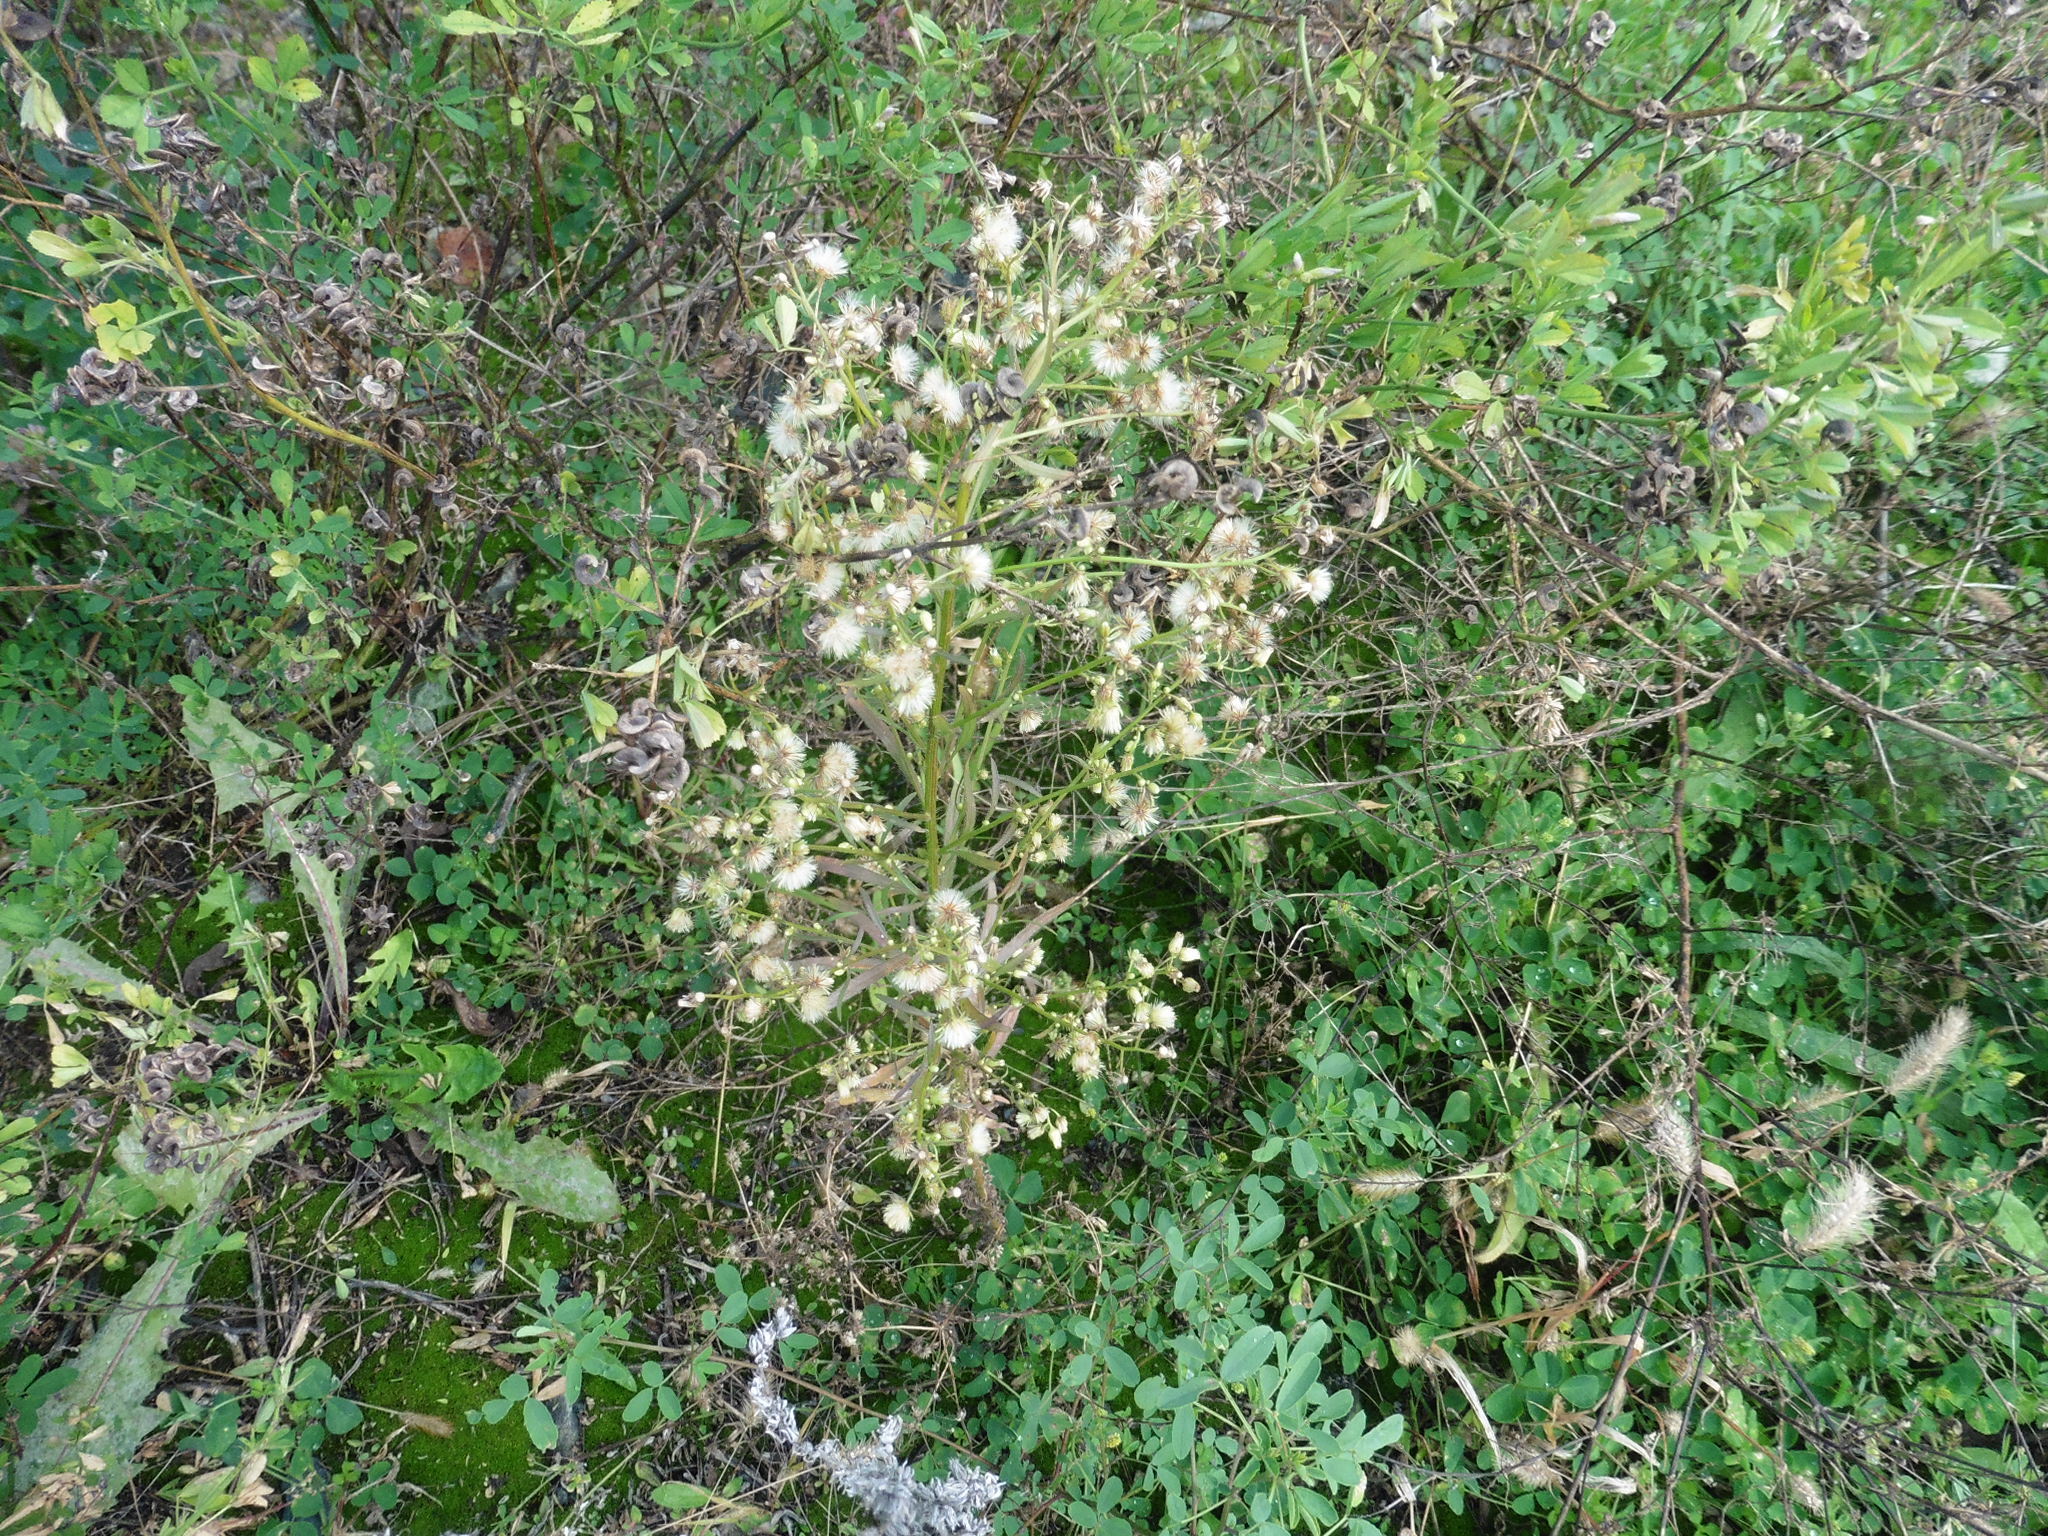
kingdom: Plantae
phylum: Tracheophyta
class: Magnoliopsida
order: Asterales
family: Asteraceae
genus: Erigeron
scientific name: Erigeron canadensis
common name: Canadian fleabane
